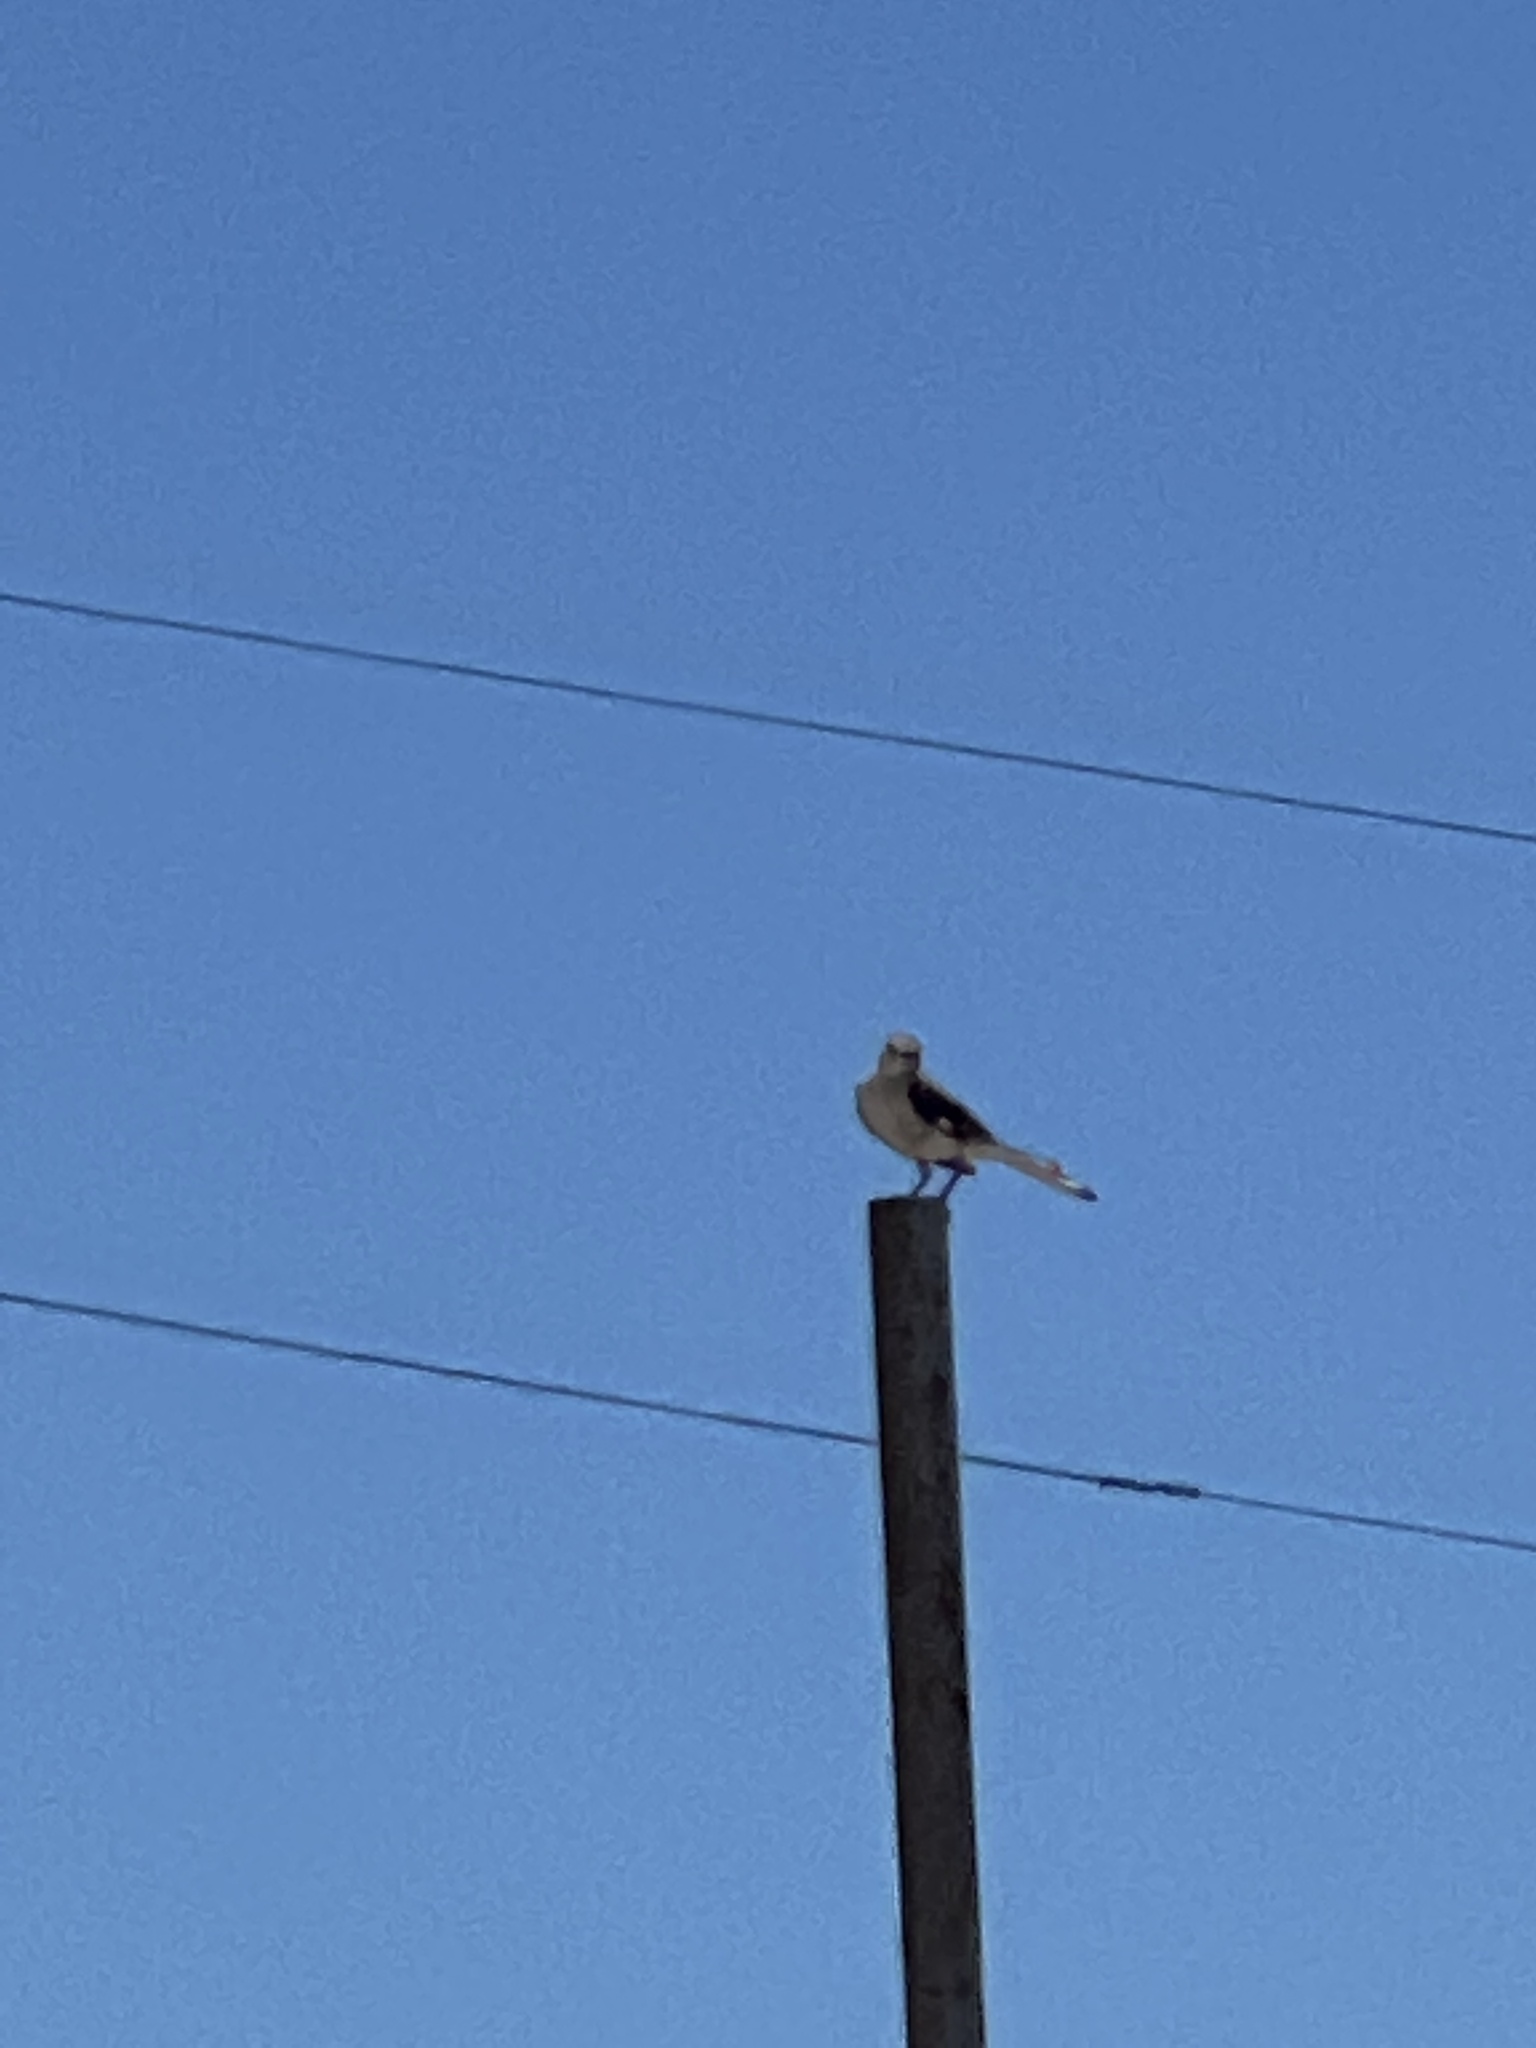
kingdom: Animalia
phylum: Chordata
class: Aves
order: Passeriformes
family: Mimidae
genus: Mimus
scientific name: Mimus polyglottos
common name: Northern mockingbird
